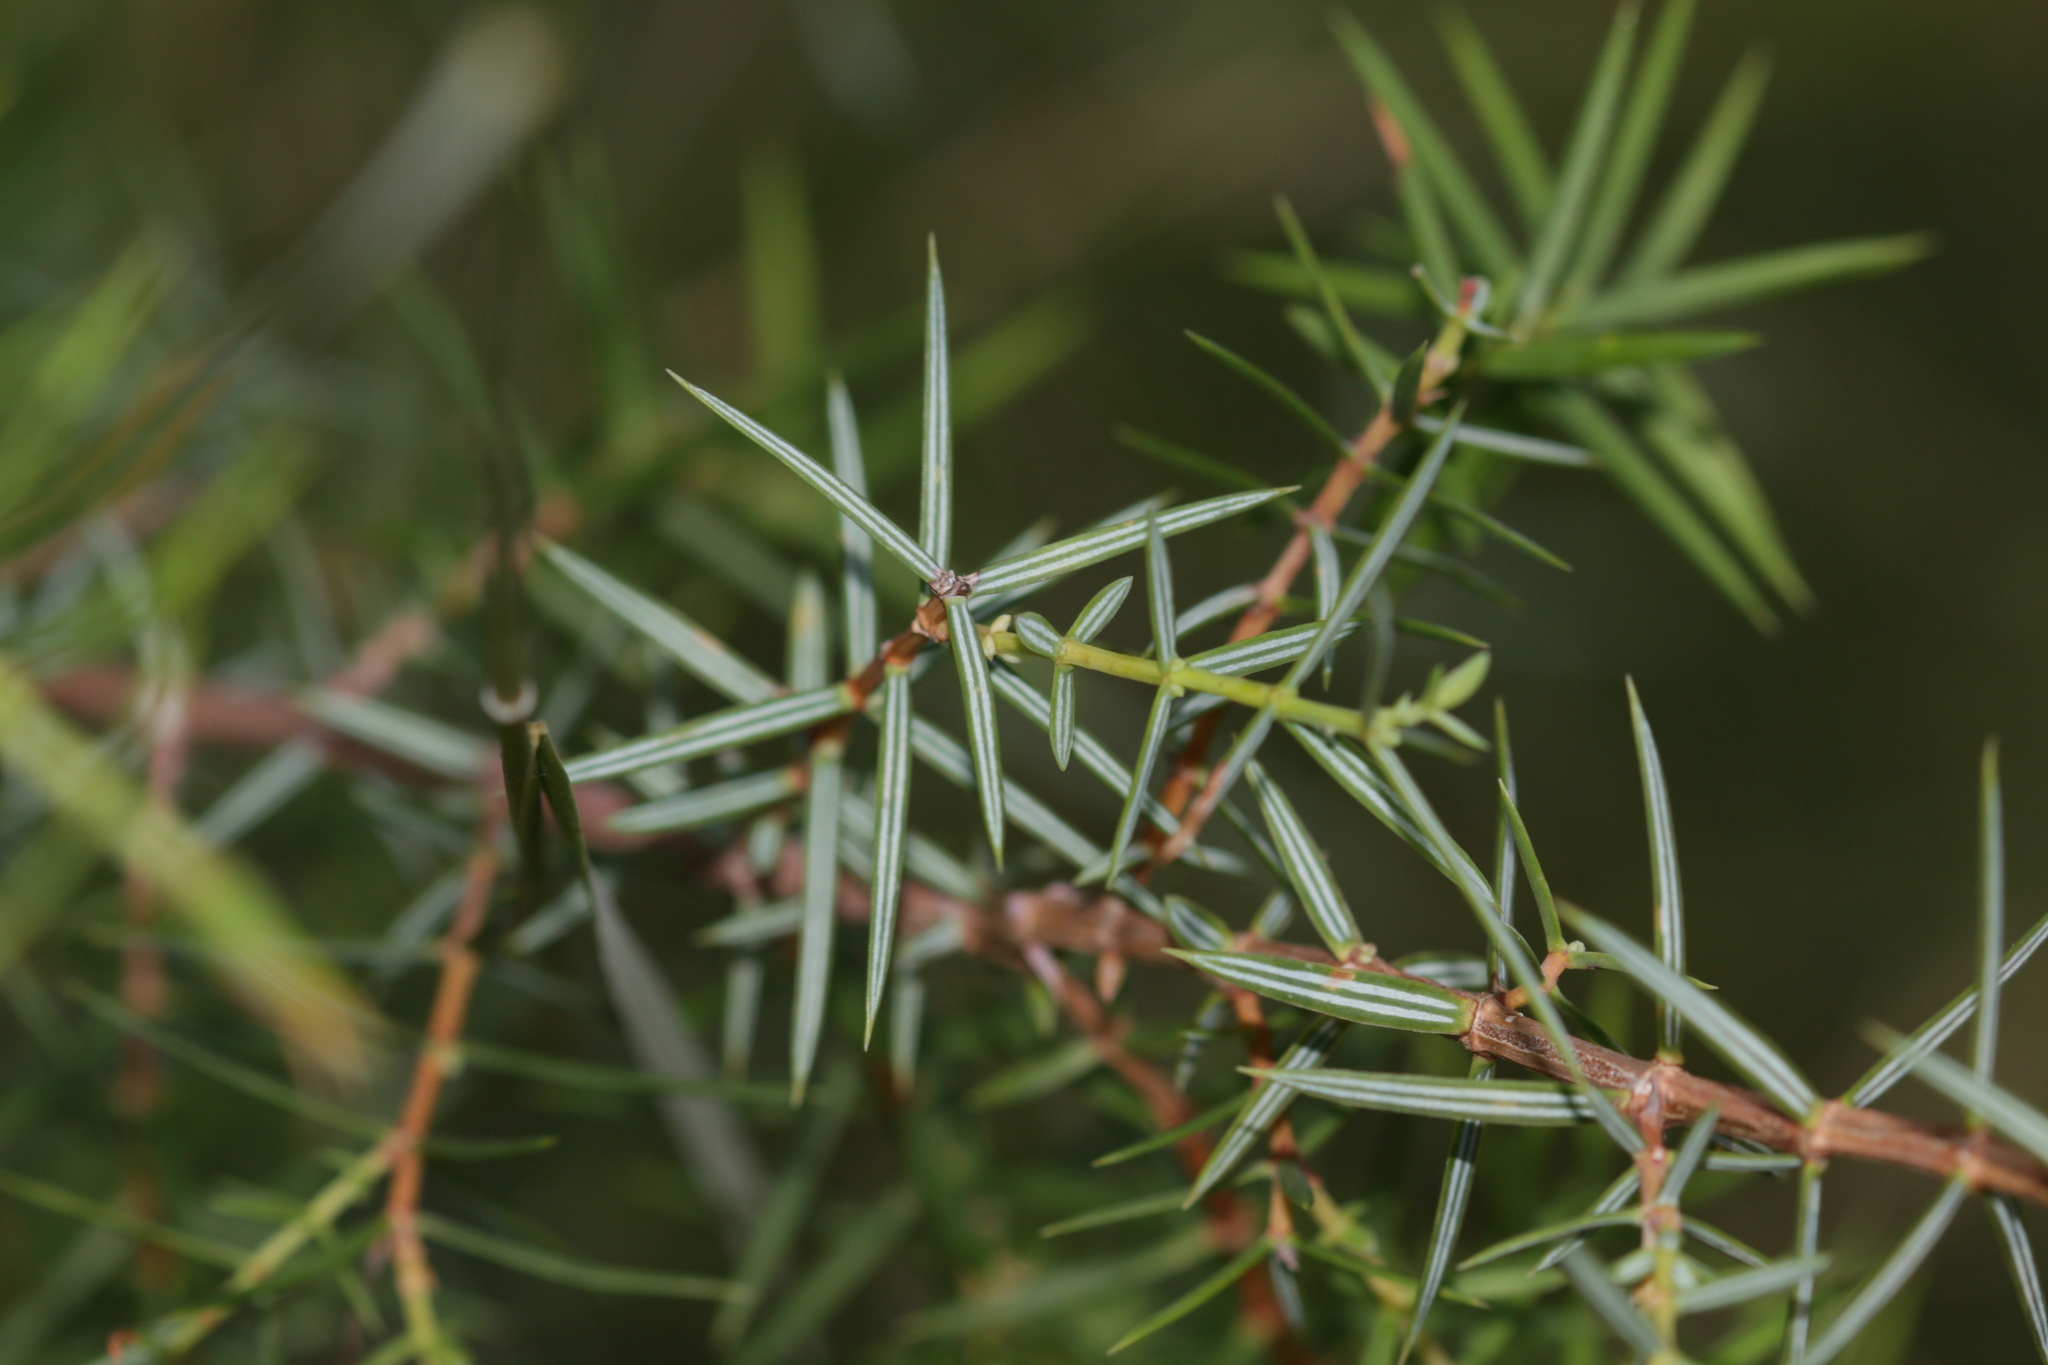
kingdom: Plantae
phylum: Tracheophyta
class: Pinopsida
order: Pinales
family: Cupressaceae
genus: Juniperus
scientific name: Juniperus oxycedrus
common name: Prickly juniper
